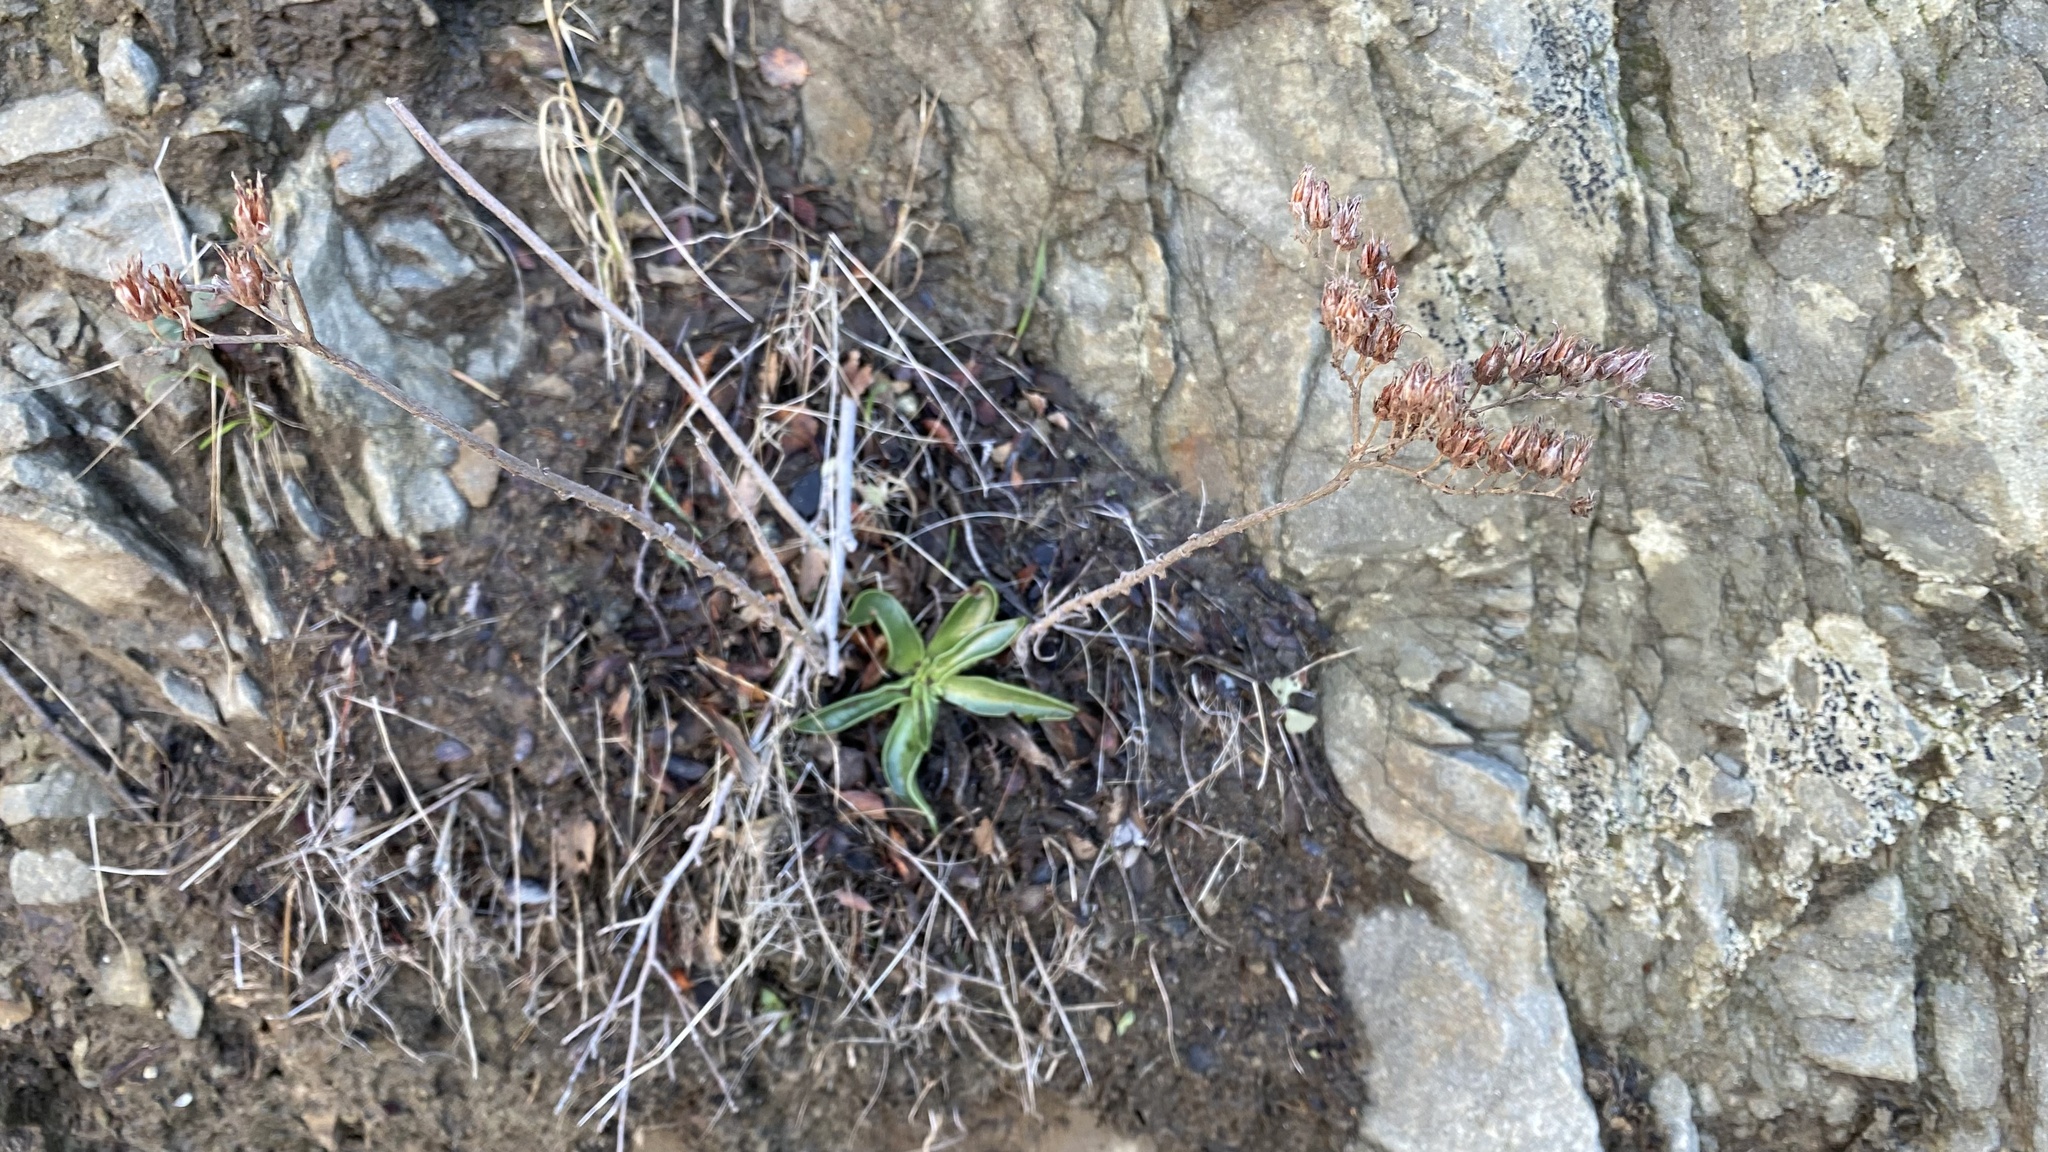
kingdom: Plantae
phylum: Tracheophyta
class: Magnoliopsida
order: Saxifragales
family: Crassulaceae
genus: Dudleya
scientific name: Dudleya lanceolata
